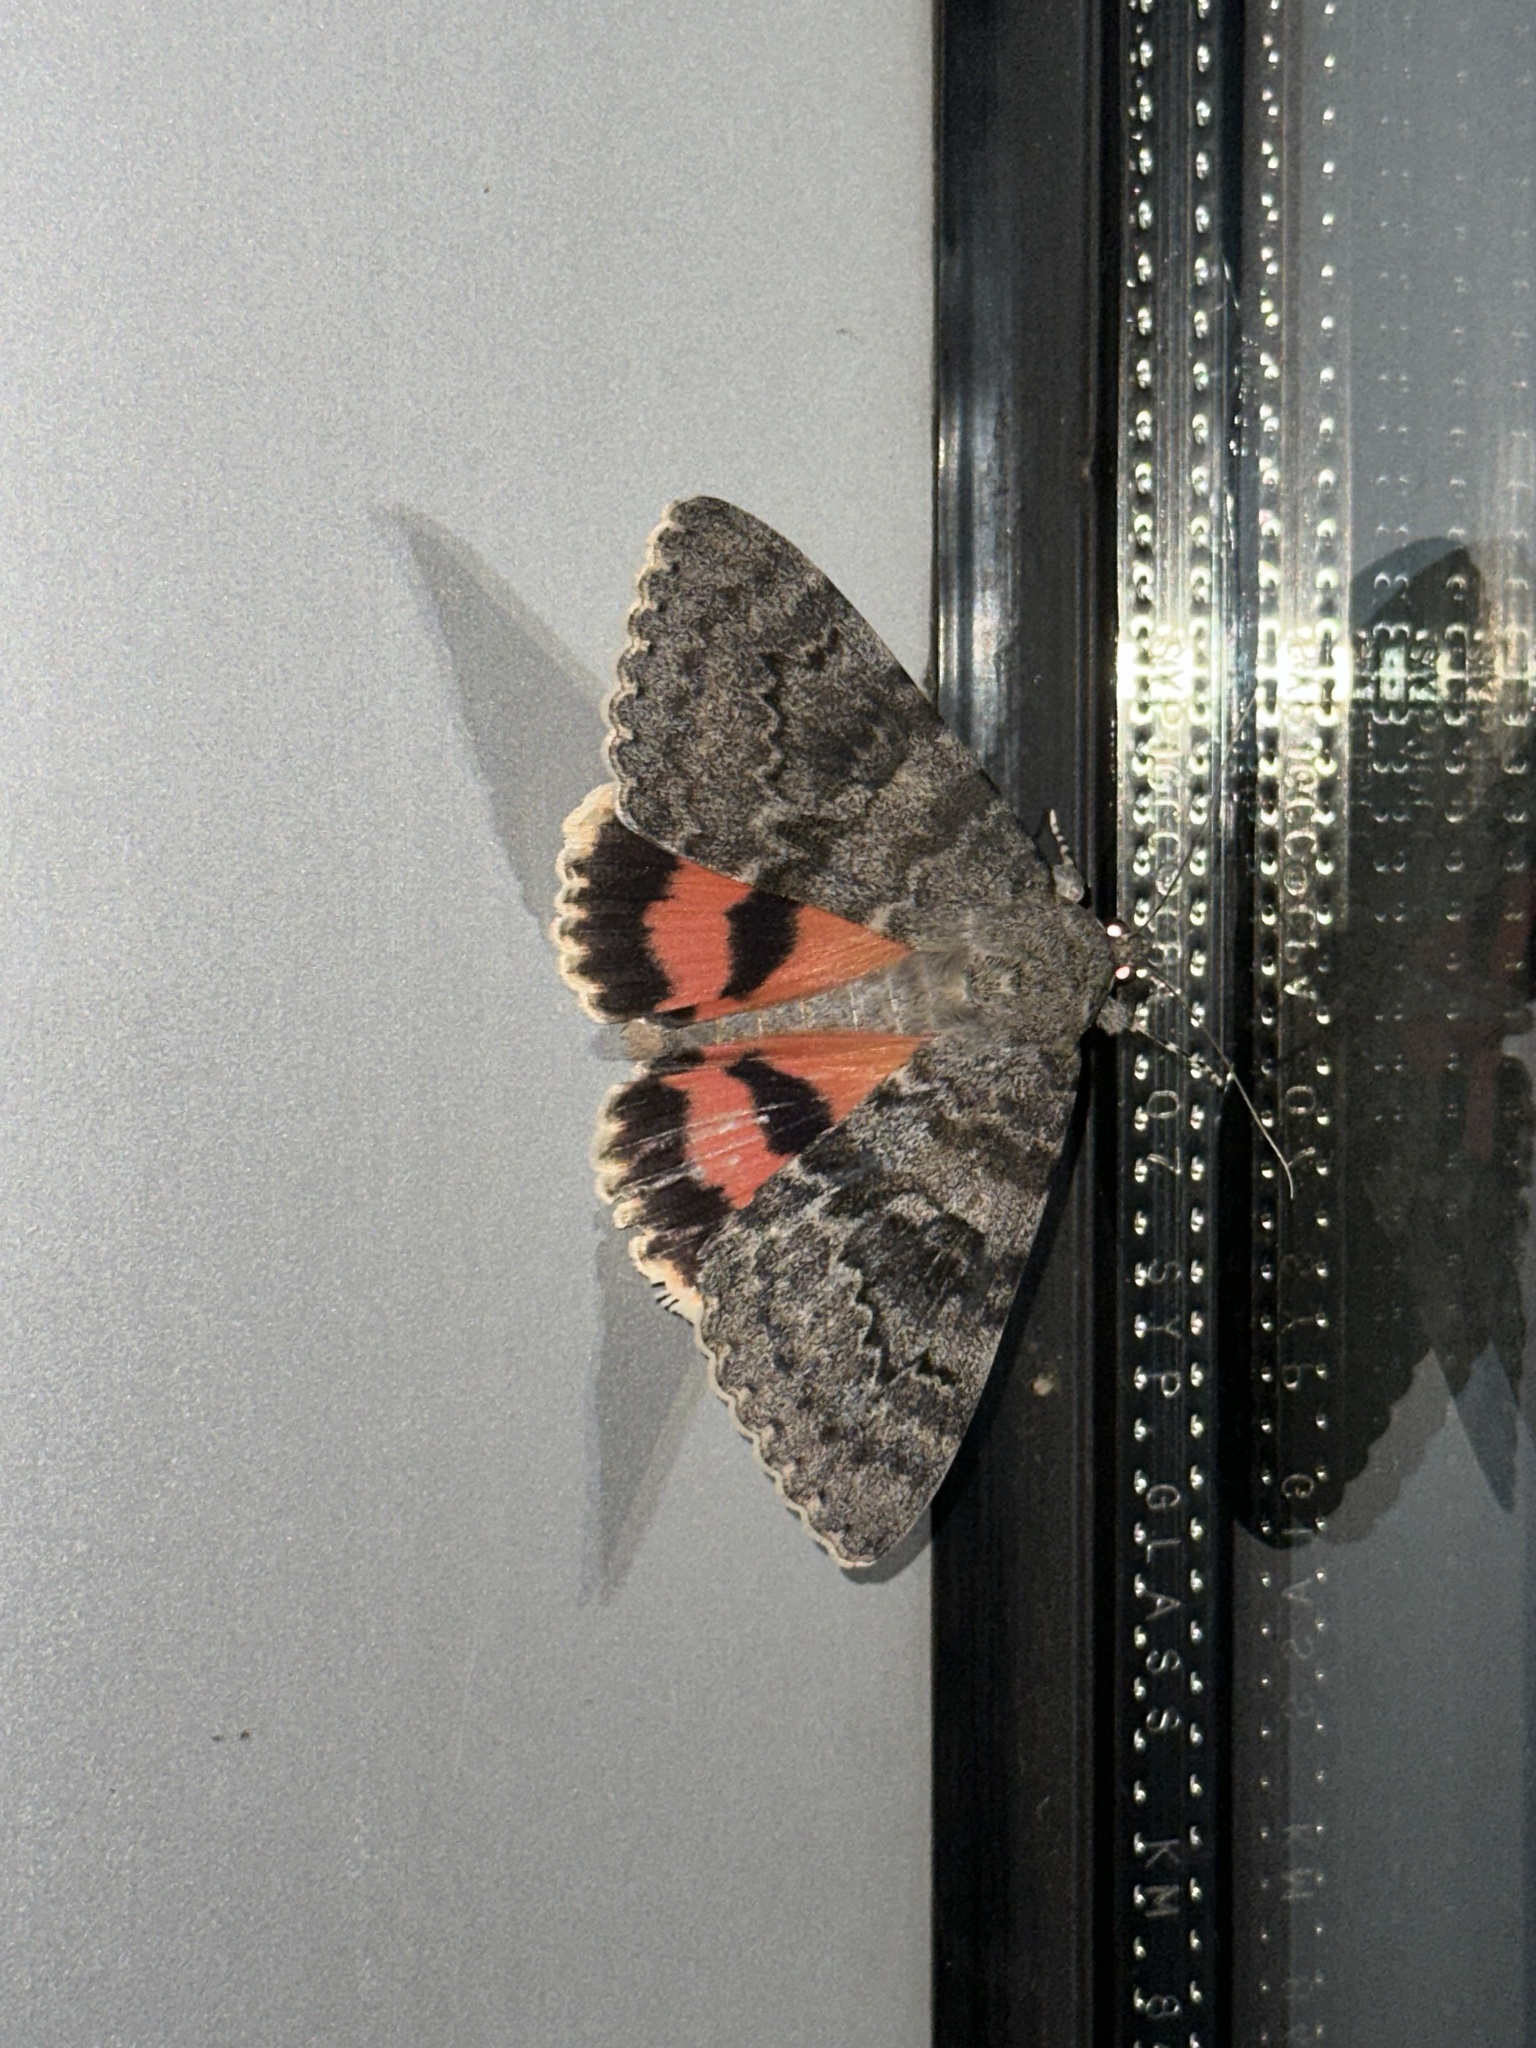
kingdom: Animalia
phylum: Arthropoda
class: Insecta
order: Lepidoptera
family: Erebidae
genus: Catocala
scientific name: Catocala deducta
